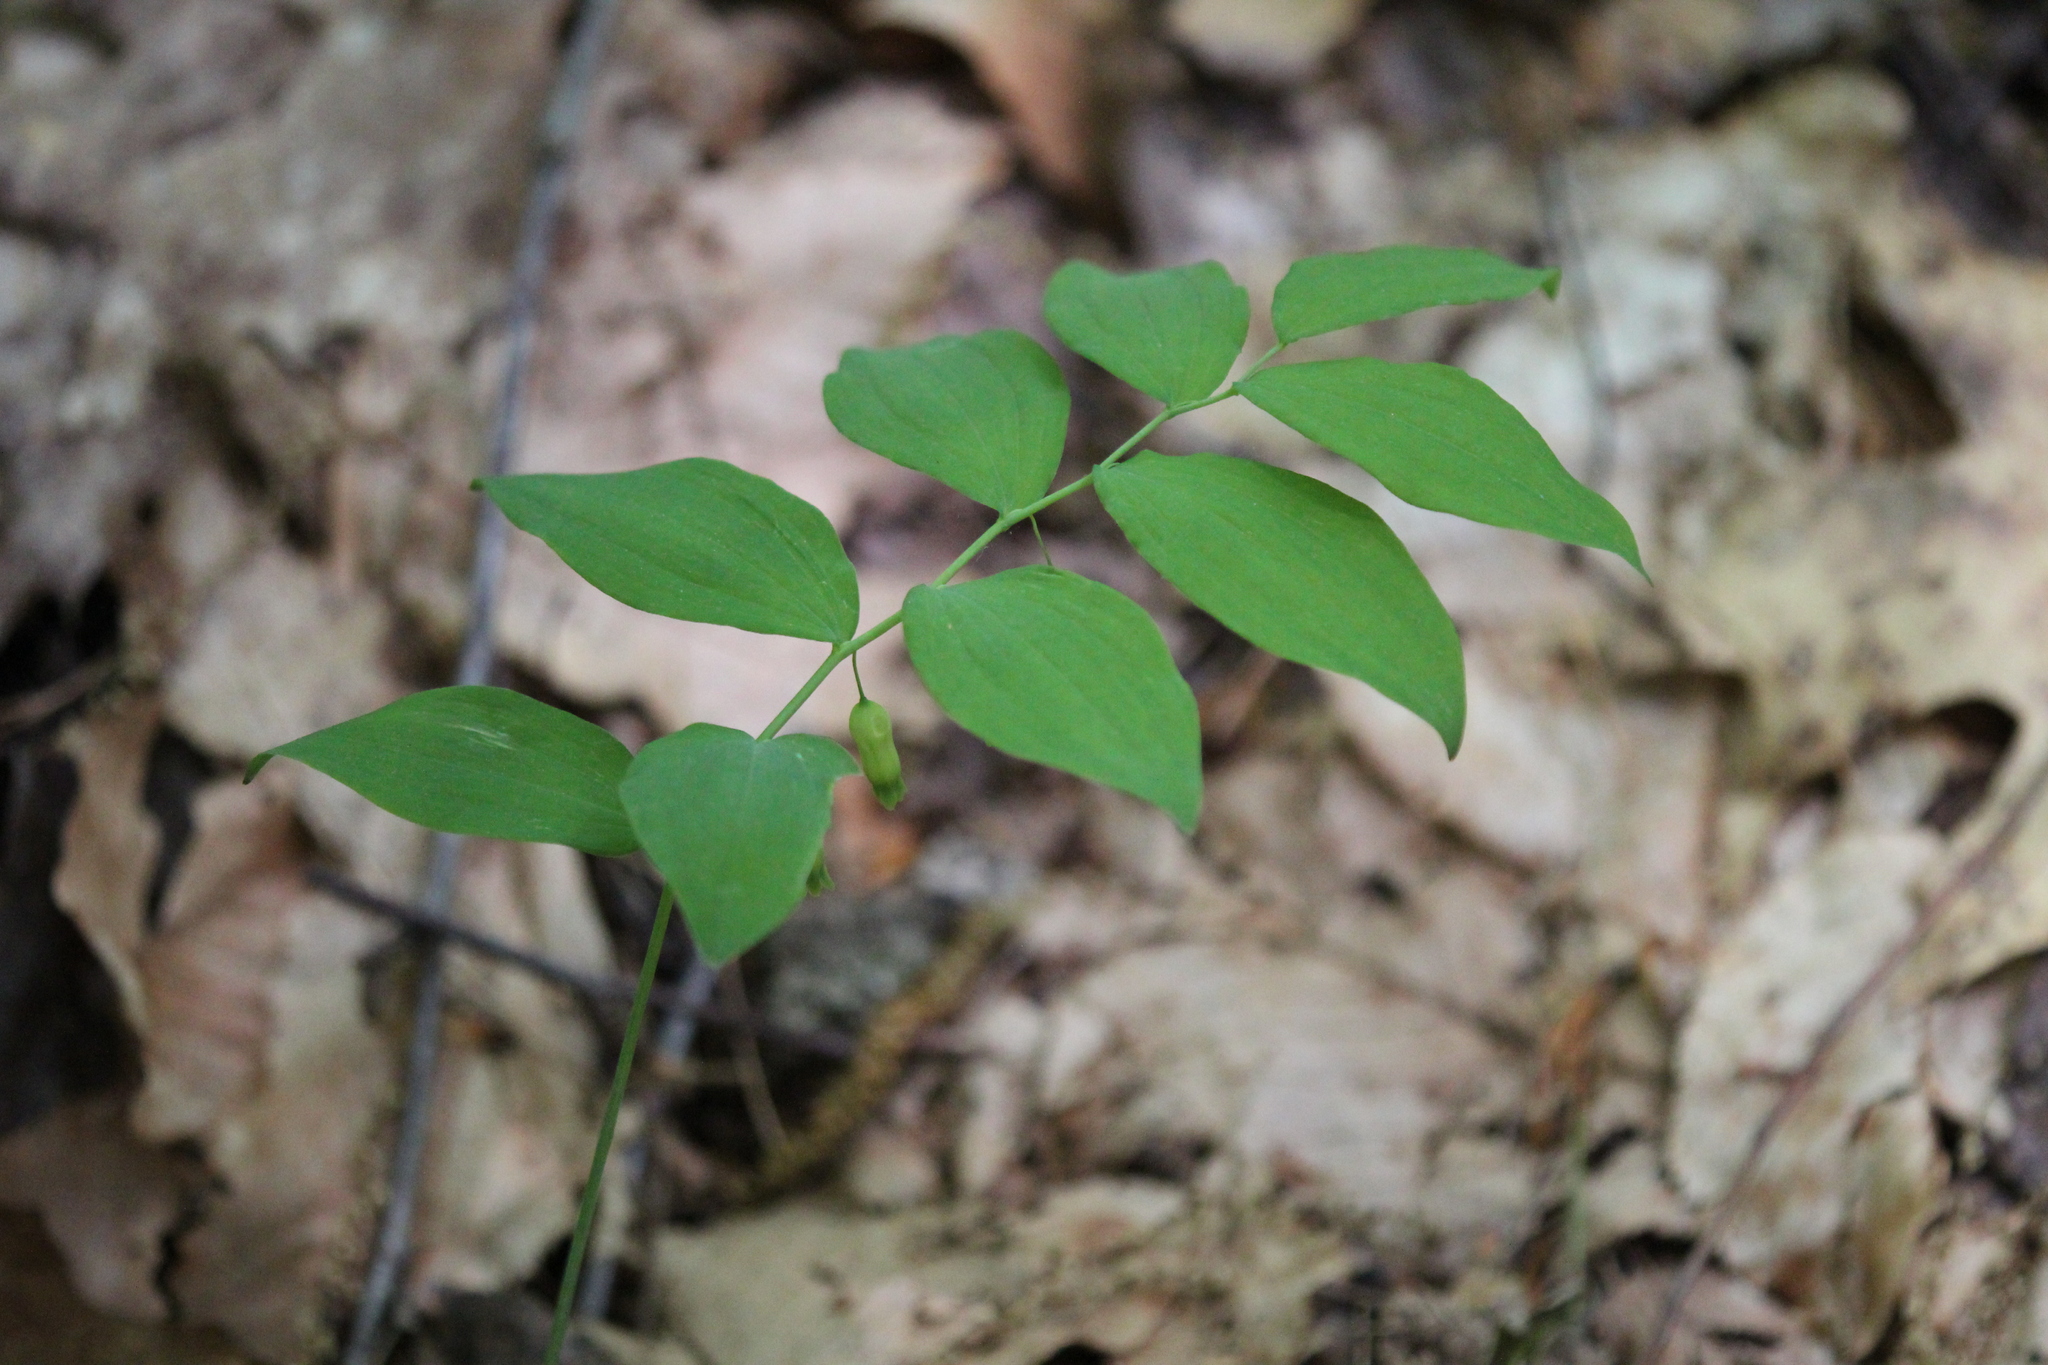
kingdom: Plantae
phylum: Tracheophyta
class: Liliopsida
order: Asparagales
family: Asparagaceae
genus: Polygonatum
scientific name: Polygonatum pubescens
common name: Downy solomon's seal
